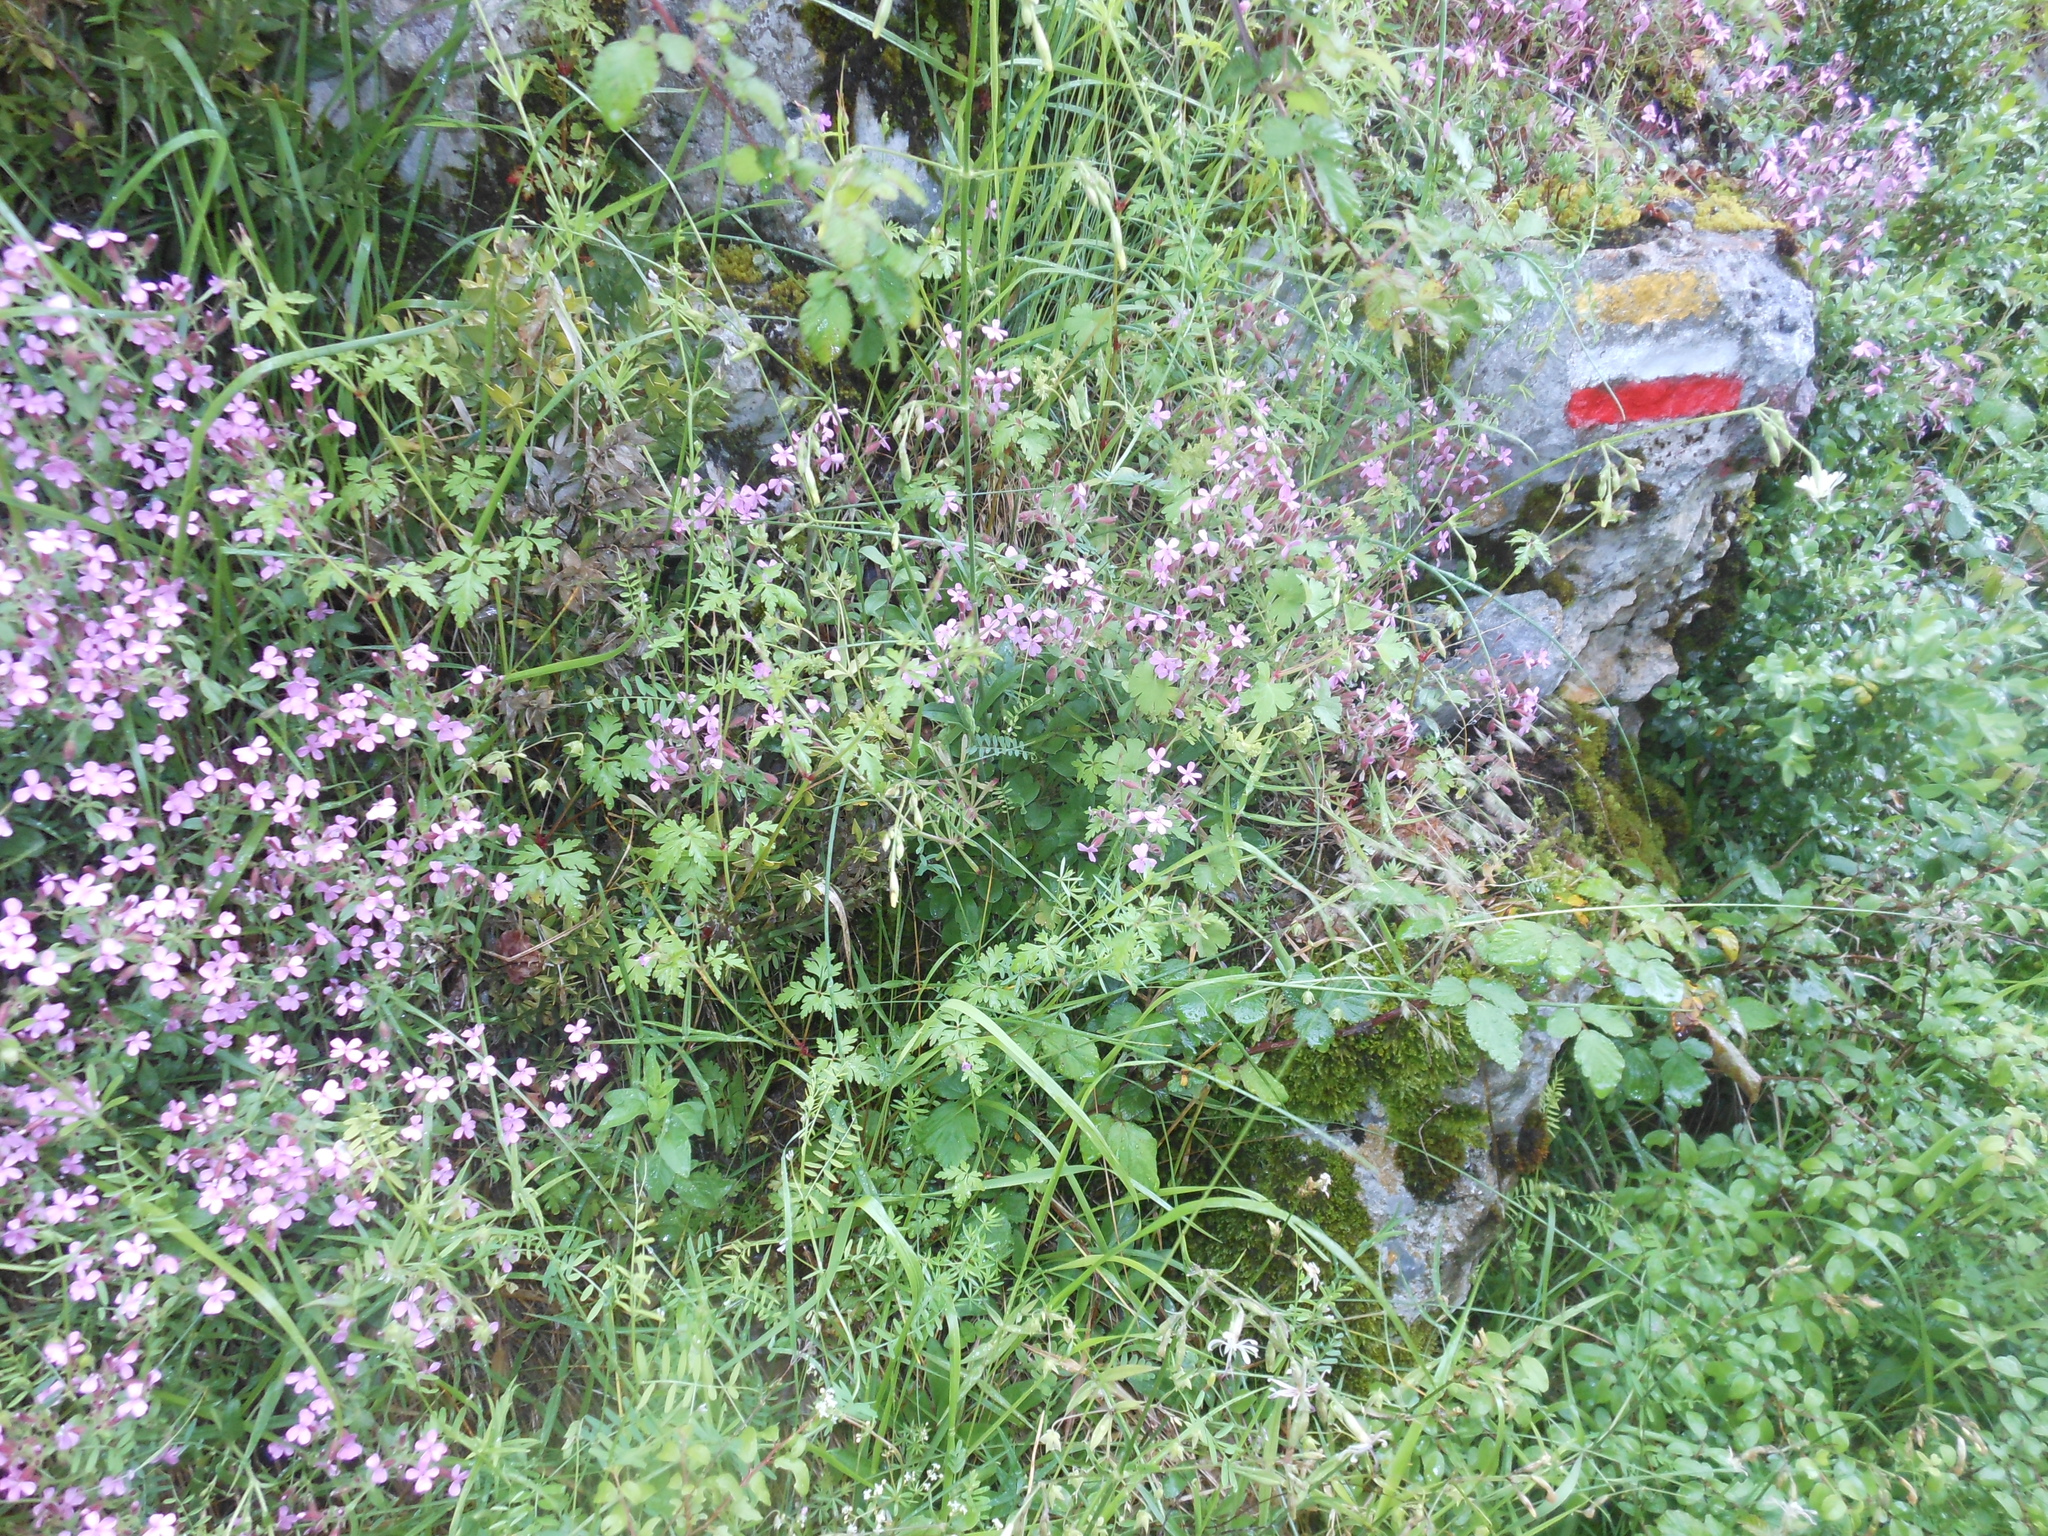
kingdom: Plantae
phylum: Tracheophyta
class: Magnoliopsida
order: Caryophyllales
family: Caryophyllaceae
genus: Saponaria
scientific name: Saponaria ocymoides
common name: Rock soapwort
